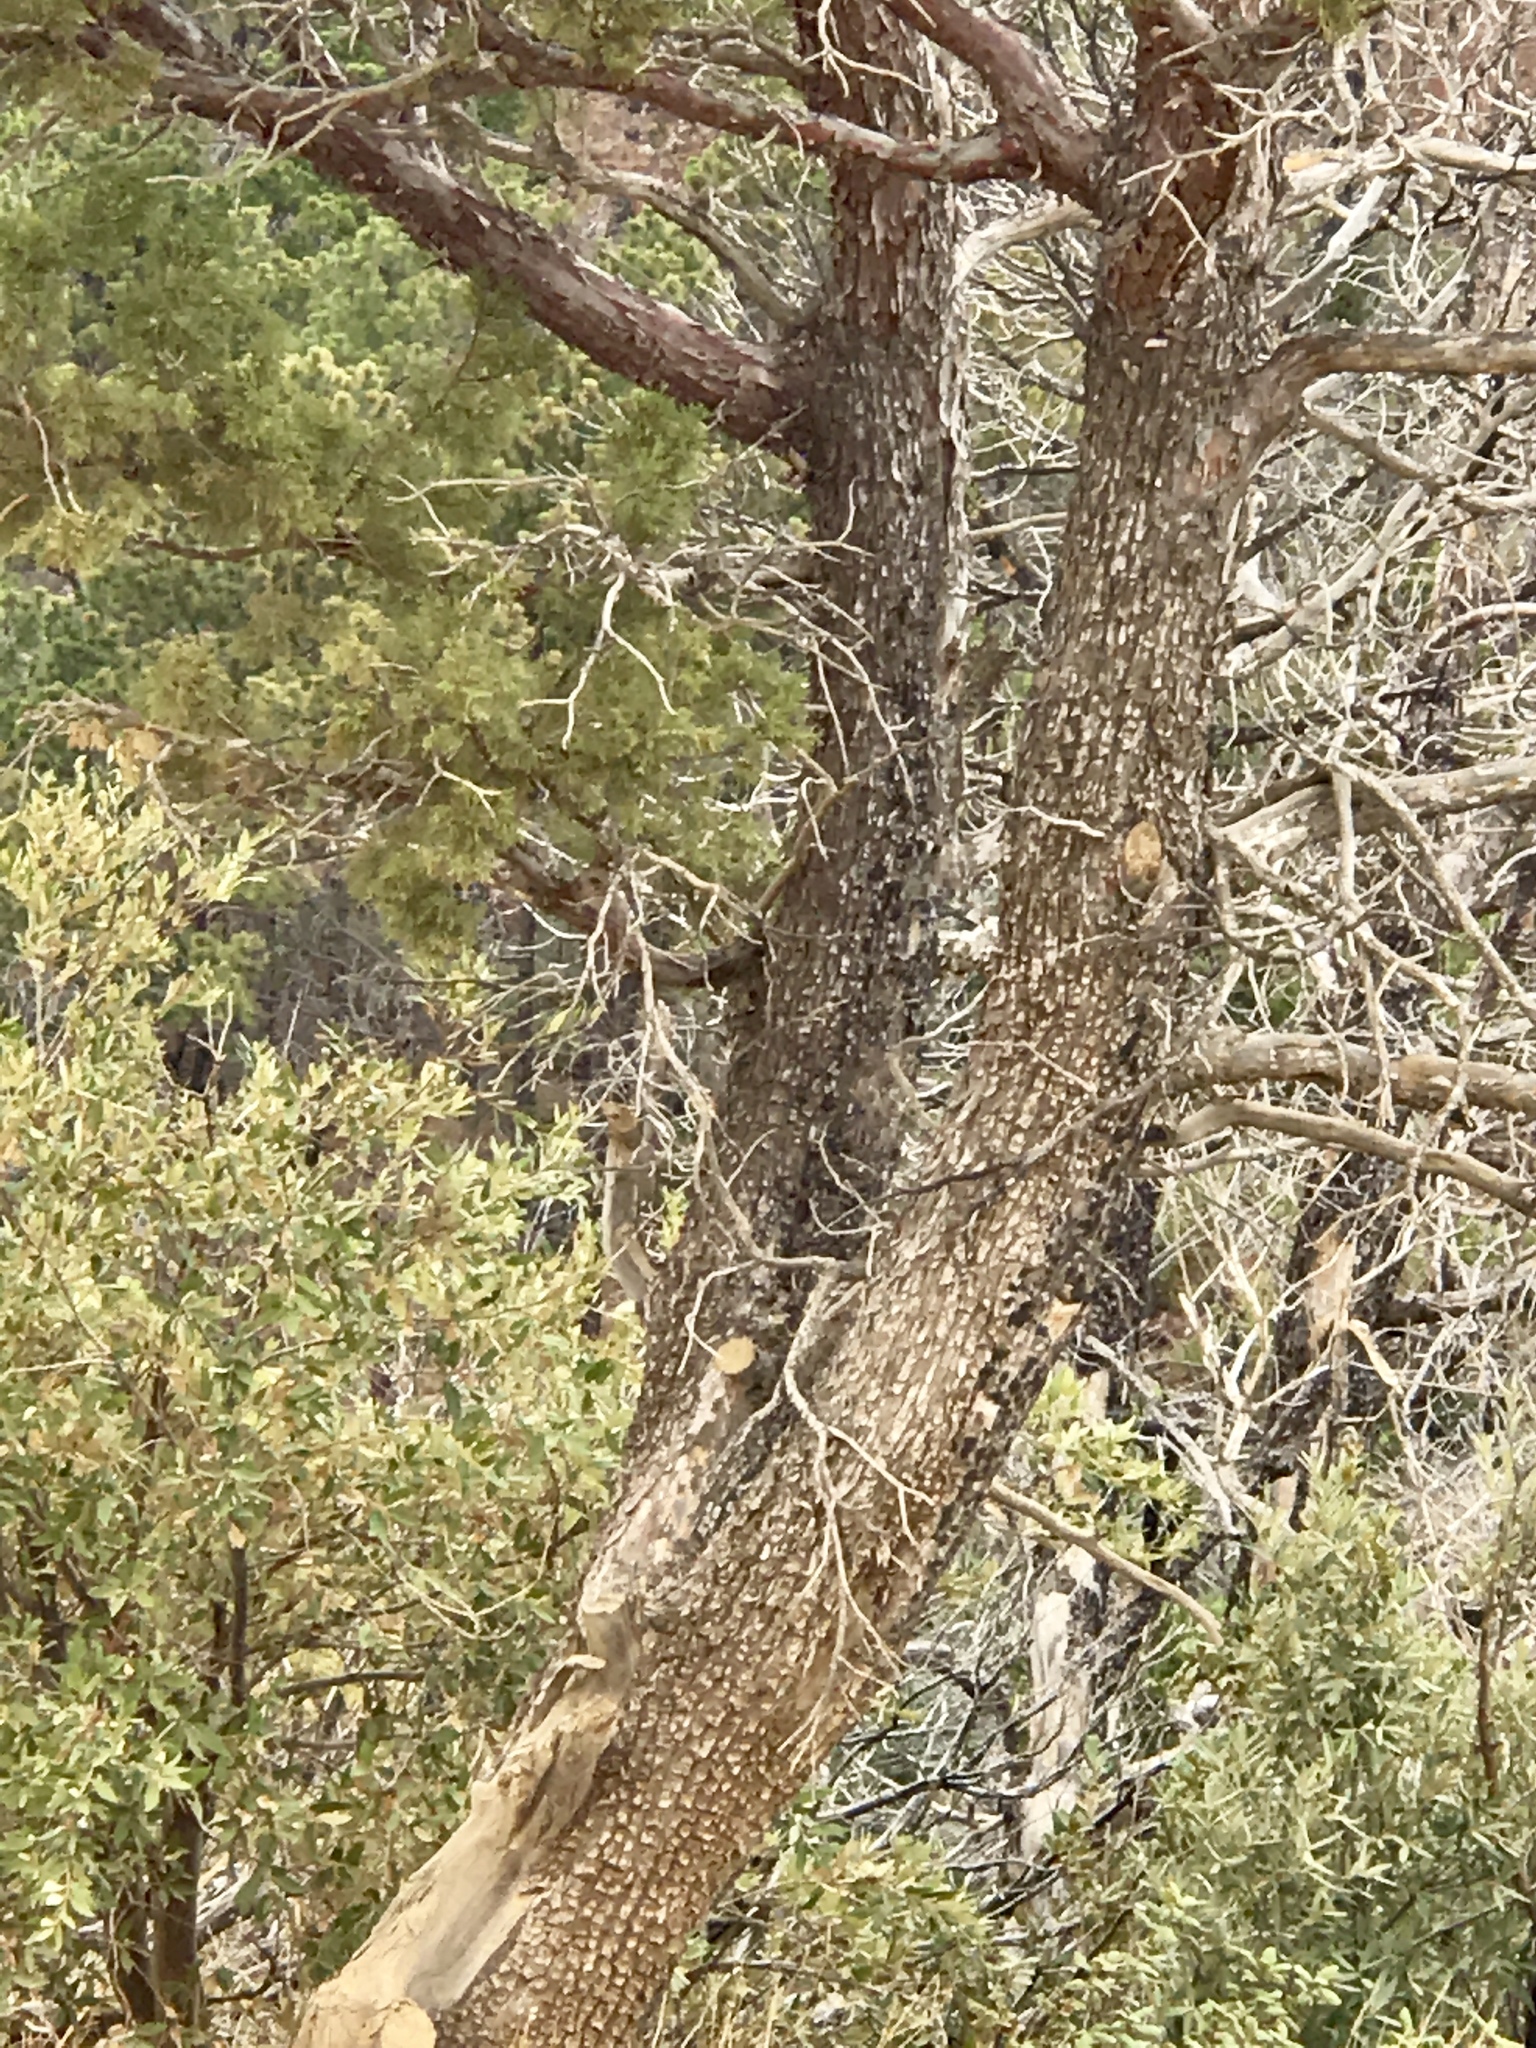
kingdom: Plantae
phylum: Tracheophyta
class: Pinopsida
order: Pinales
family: Cupressaceae
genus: Juniperus
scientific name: Juniperus deppeana
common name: Alligator juniper
